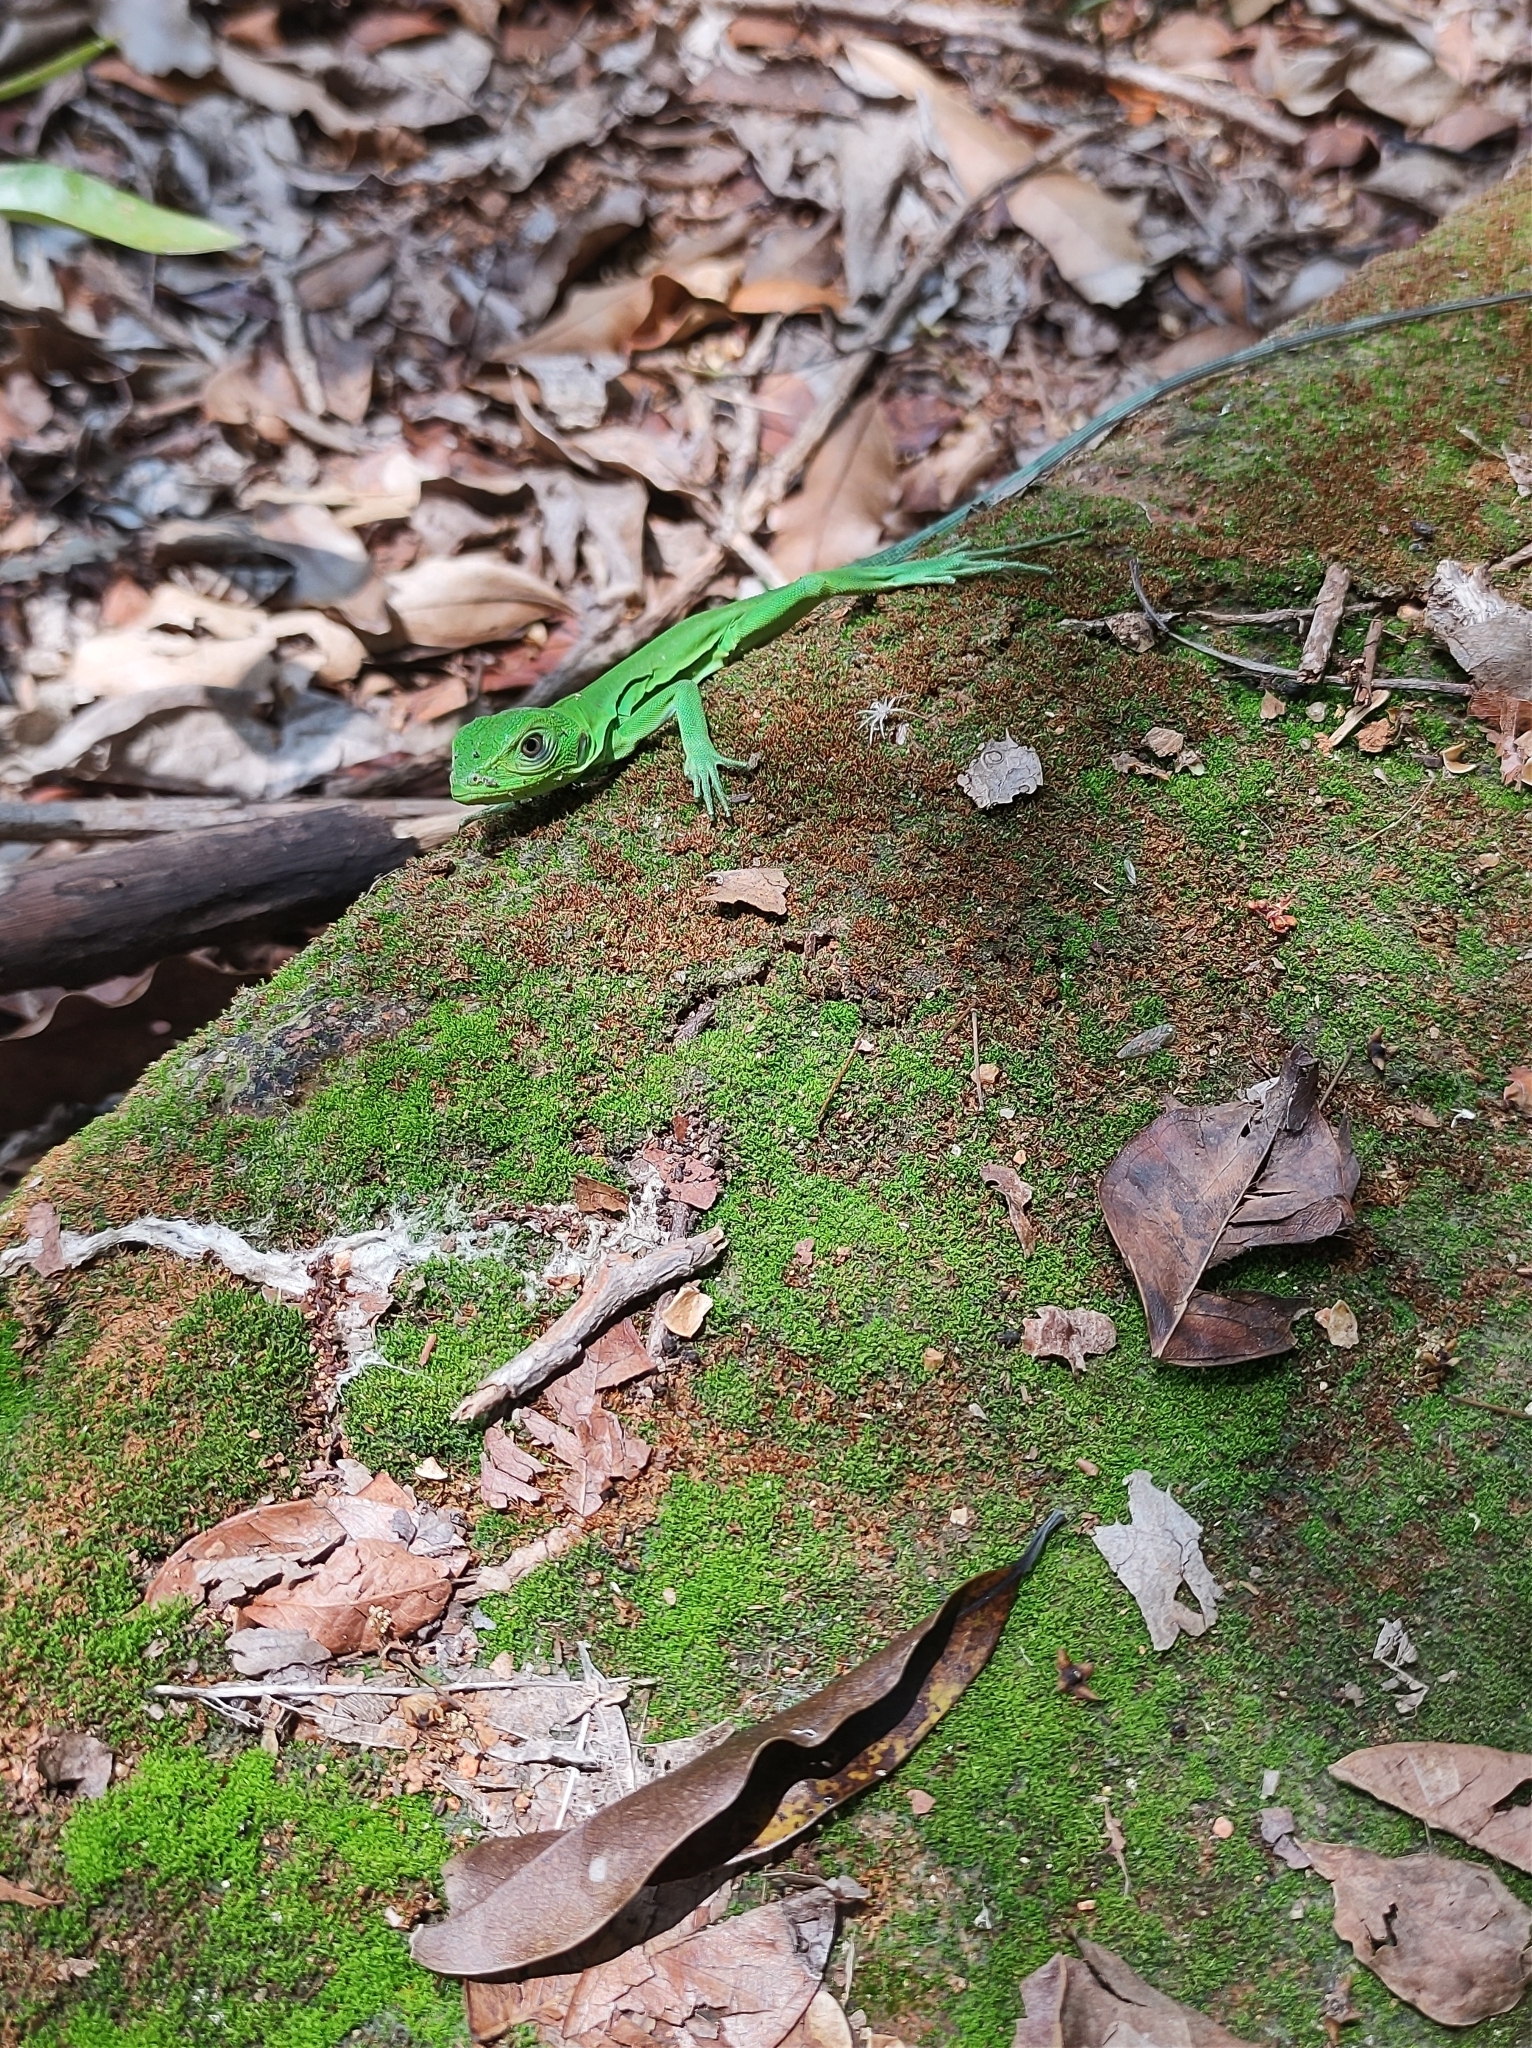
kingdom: Animalia
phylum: Chordata
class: Squamata
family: Iguanidae
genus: Ctenosaura
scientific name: Ctenosaura pectinata
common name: Guerreran spiny-tailed iguana
